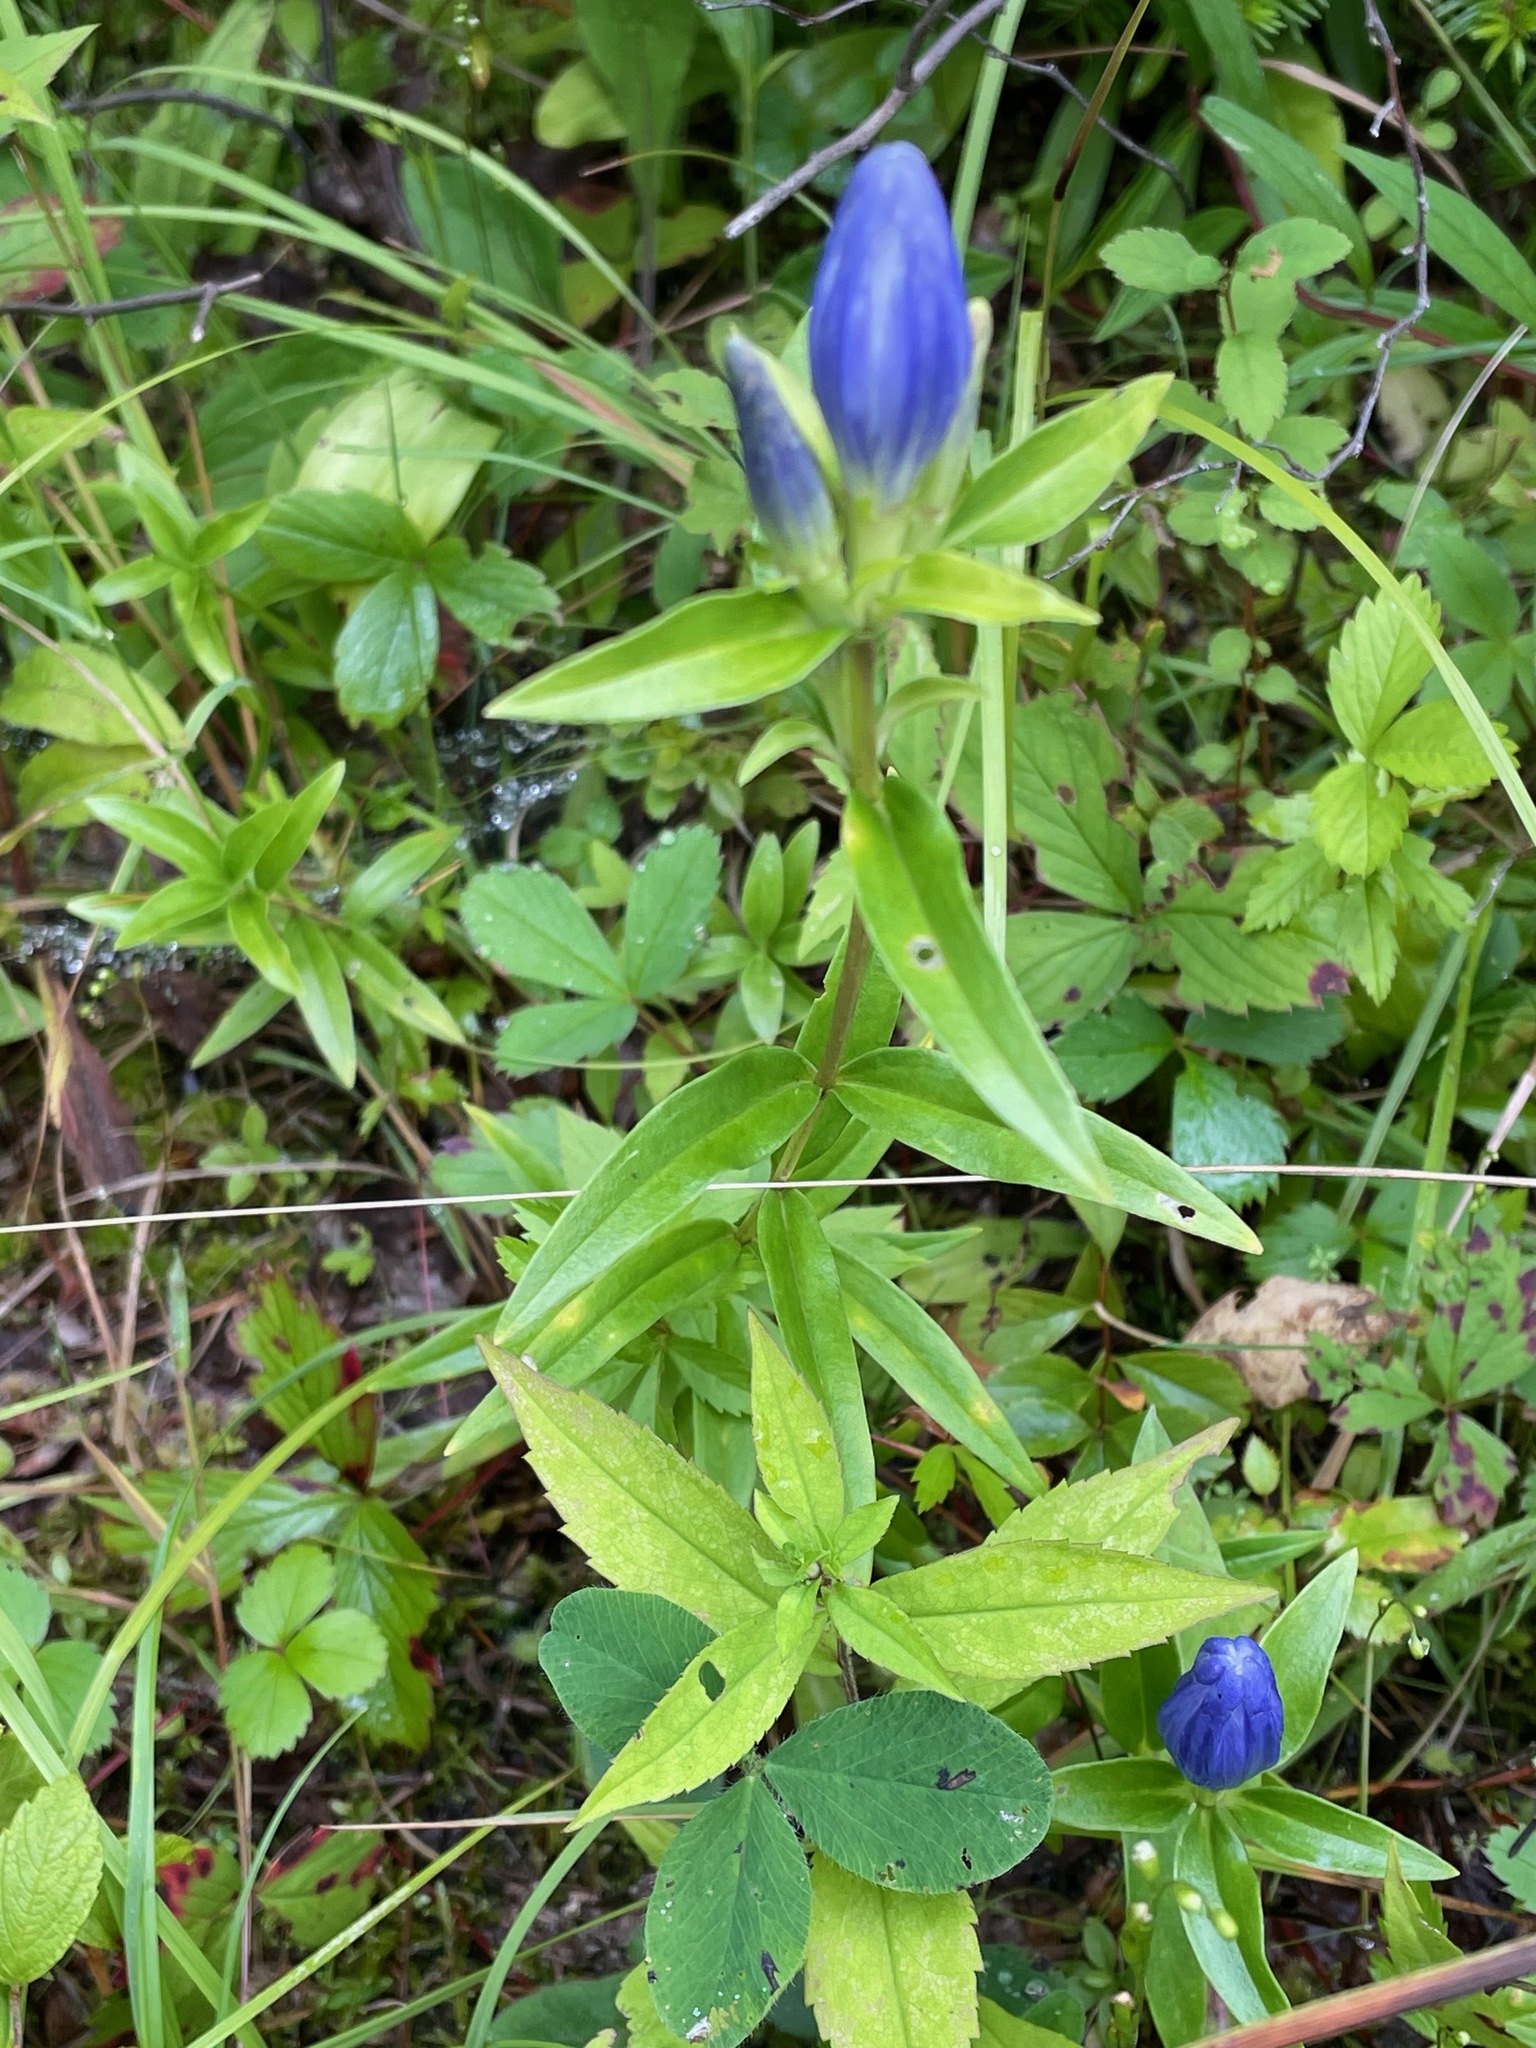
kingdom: Plantae
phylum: Tracheophyta
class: Magnoliopsida
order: Gentianales
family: Gentianaceae
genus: Gentiana
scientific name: Gentiana linearis
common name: Bastard gentian
